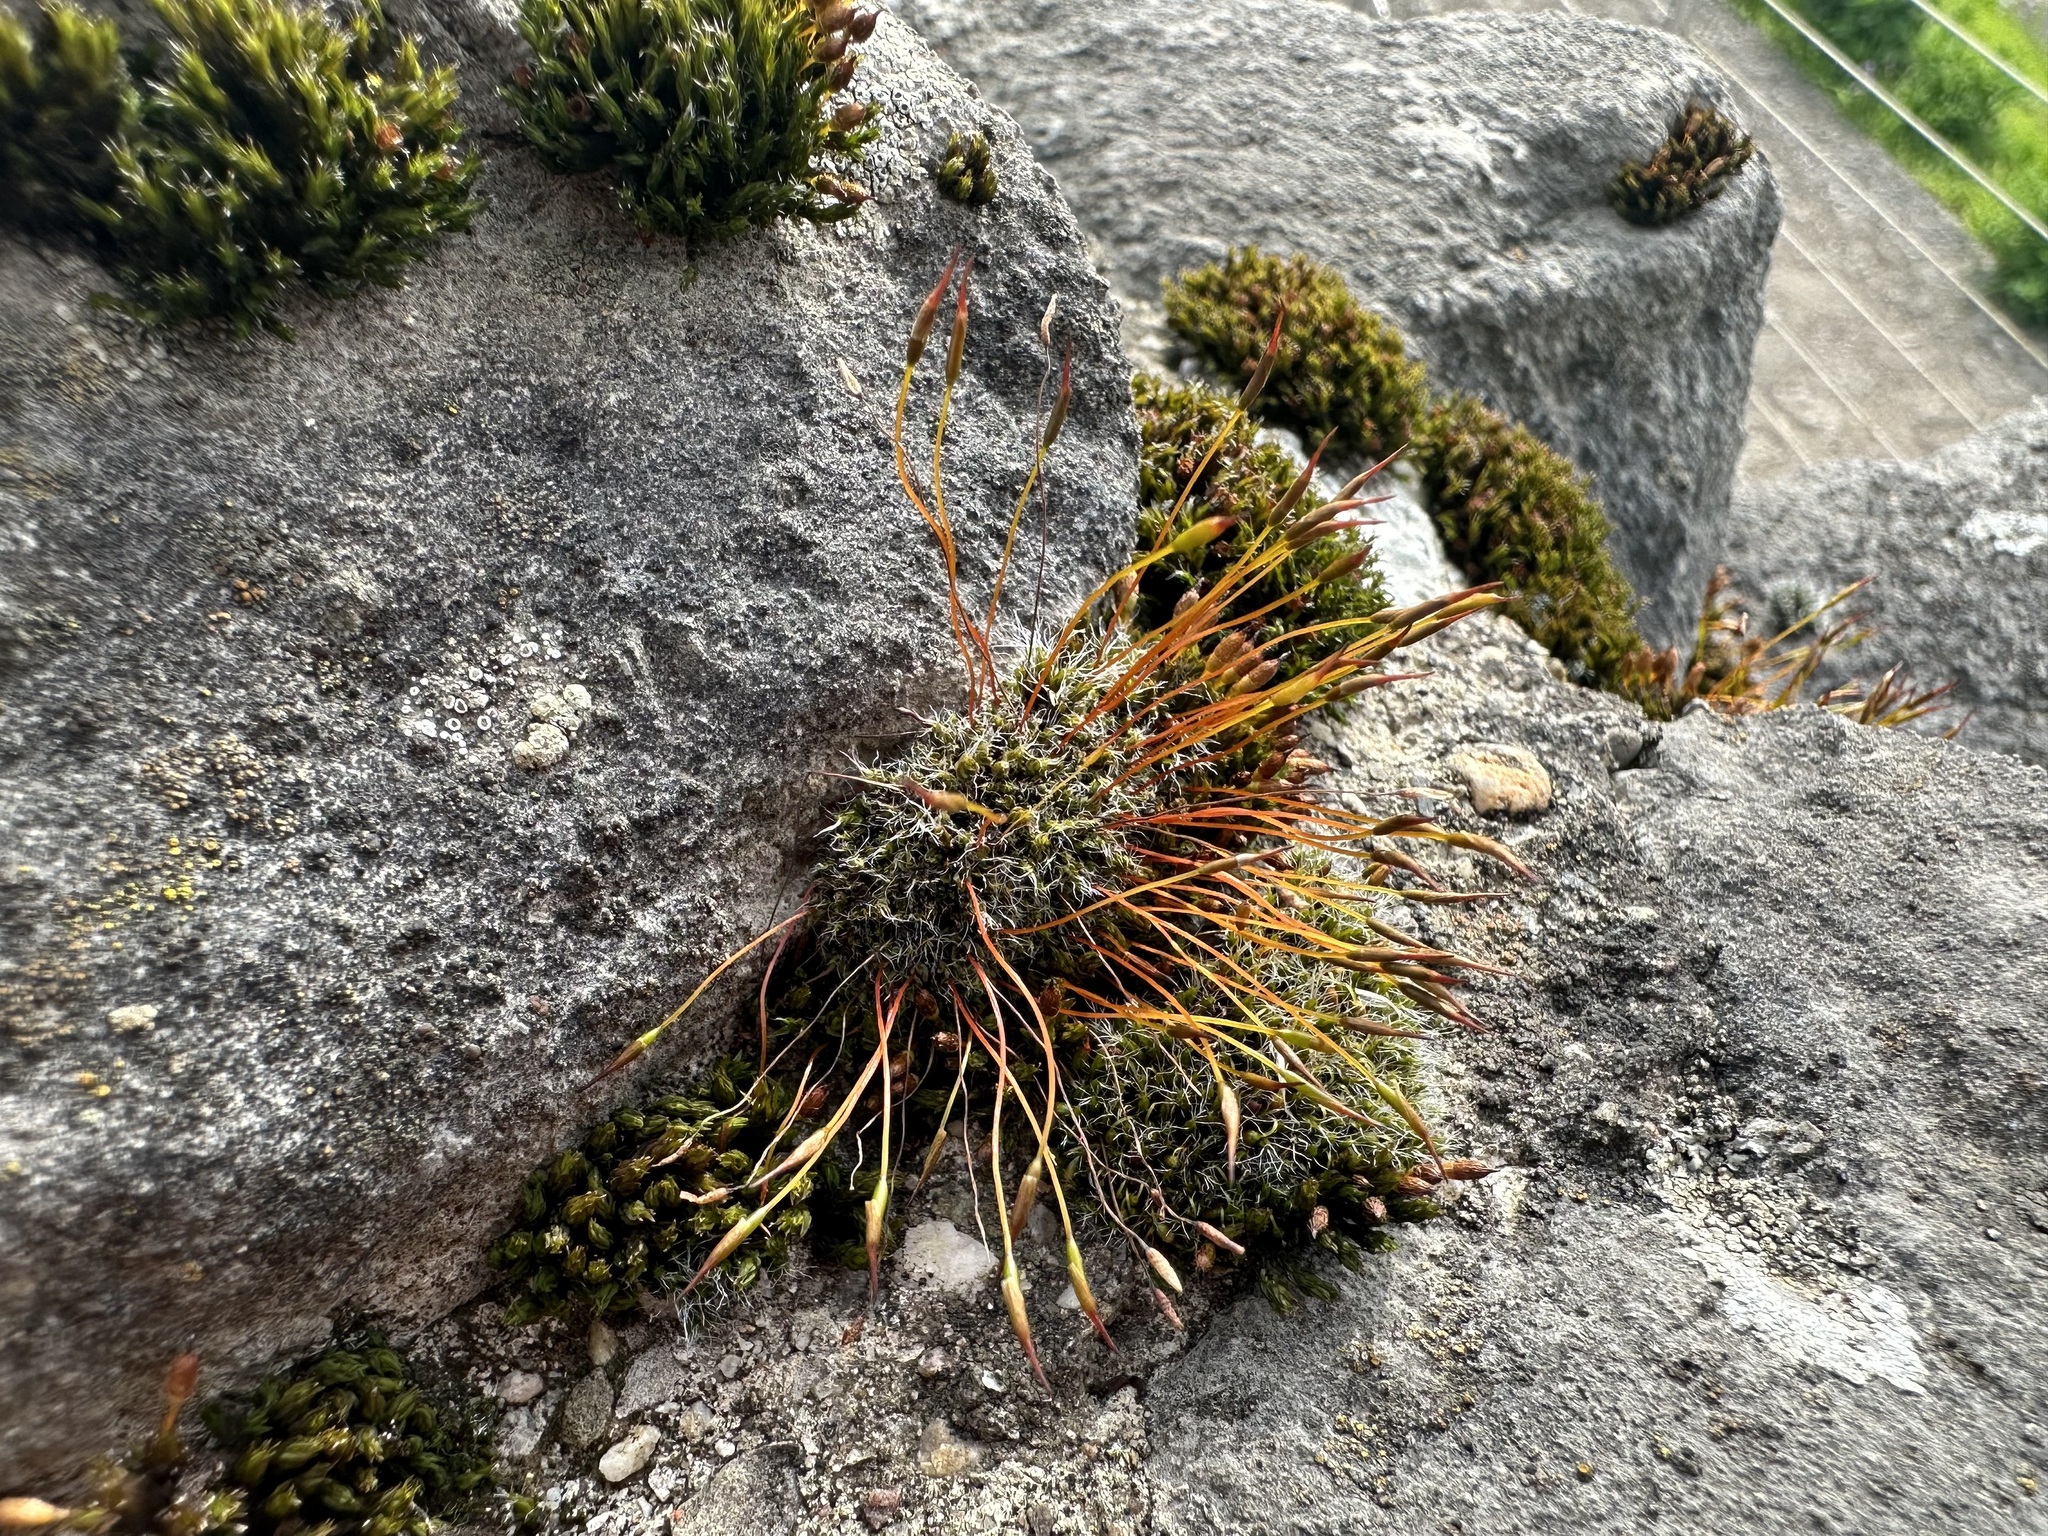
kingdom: Plantae
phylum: Bryophyta
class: Bryopsida
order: Pottiales
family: Pottiaceae
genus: Tortula
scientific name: Tortula muralis
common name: Wall screw-moss
